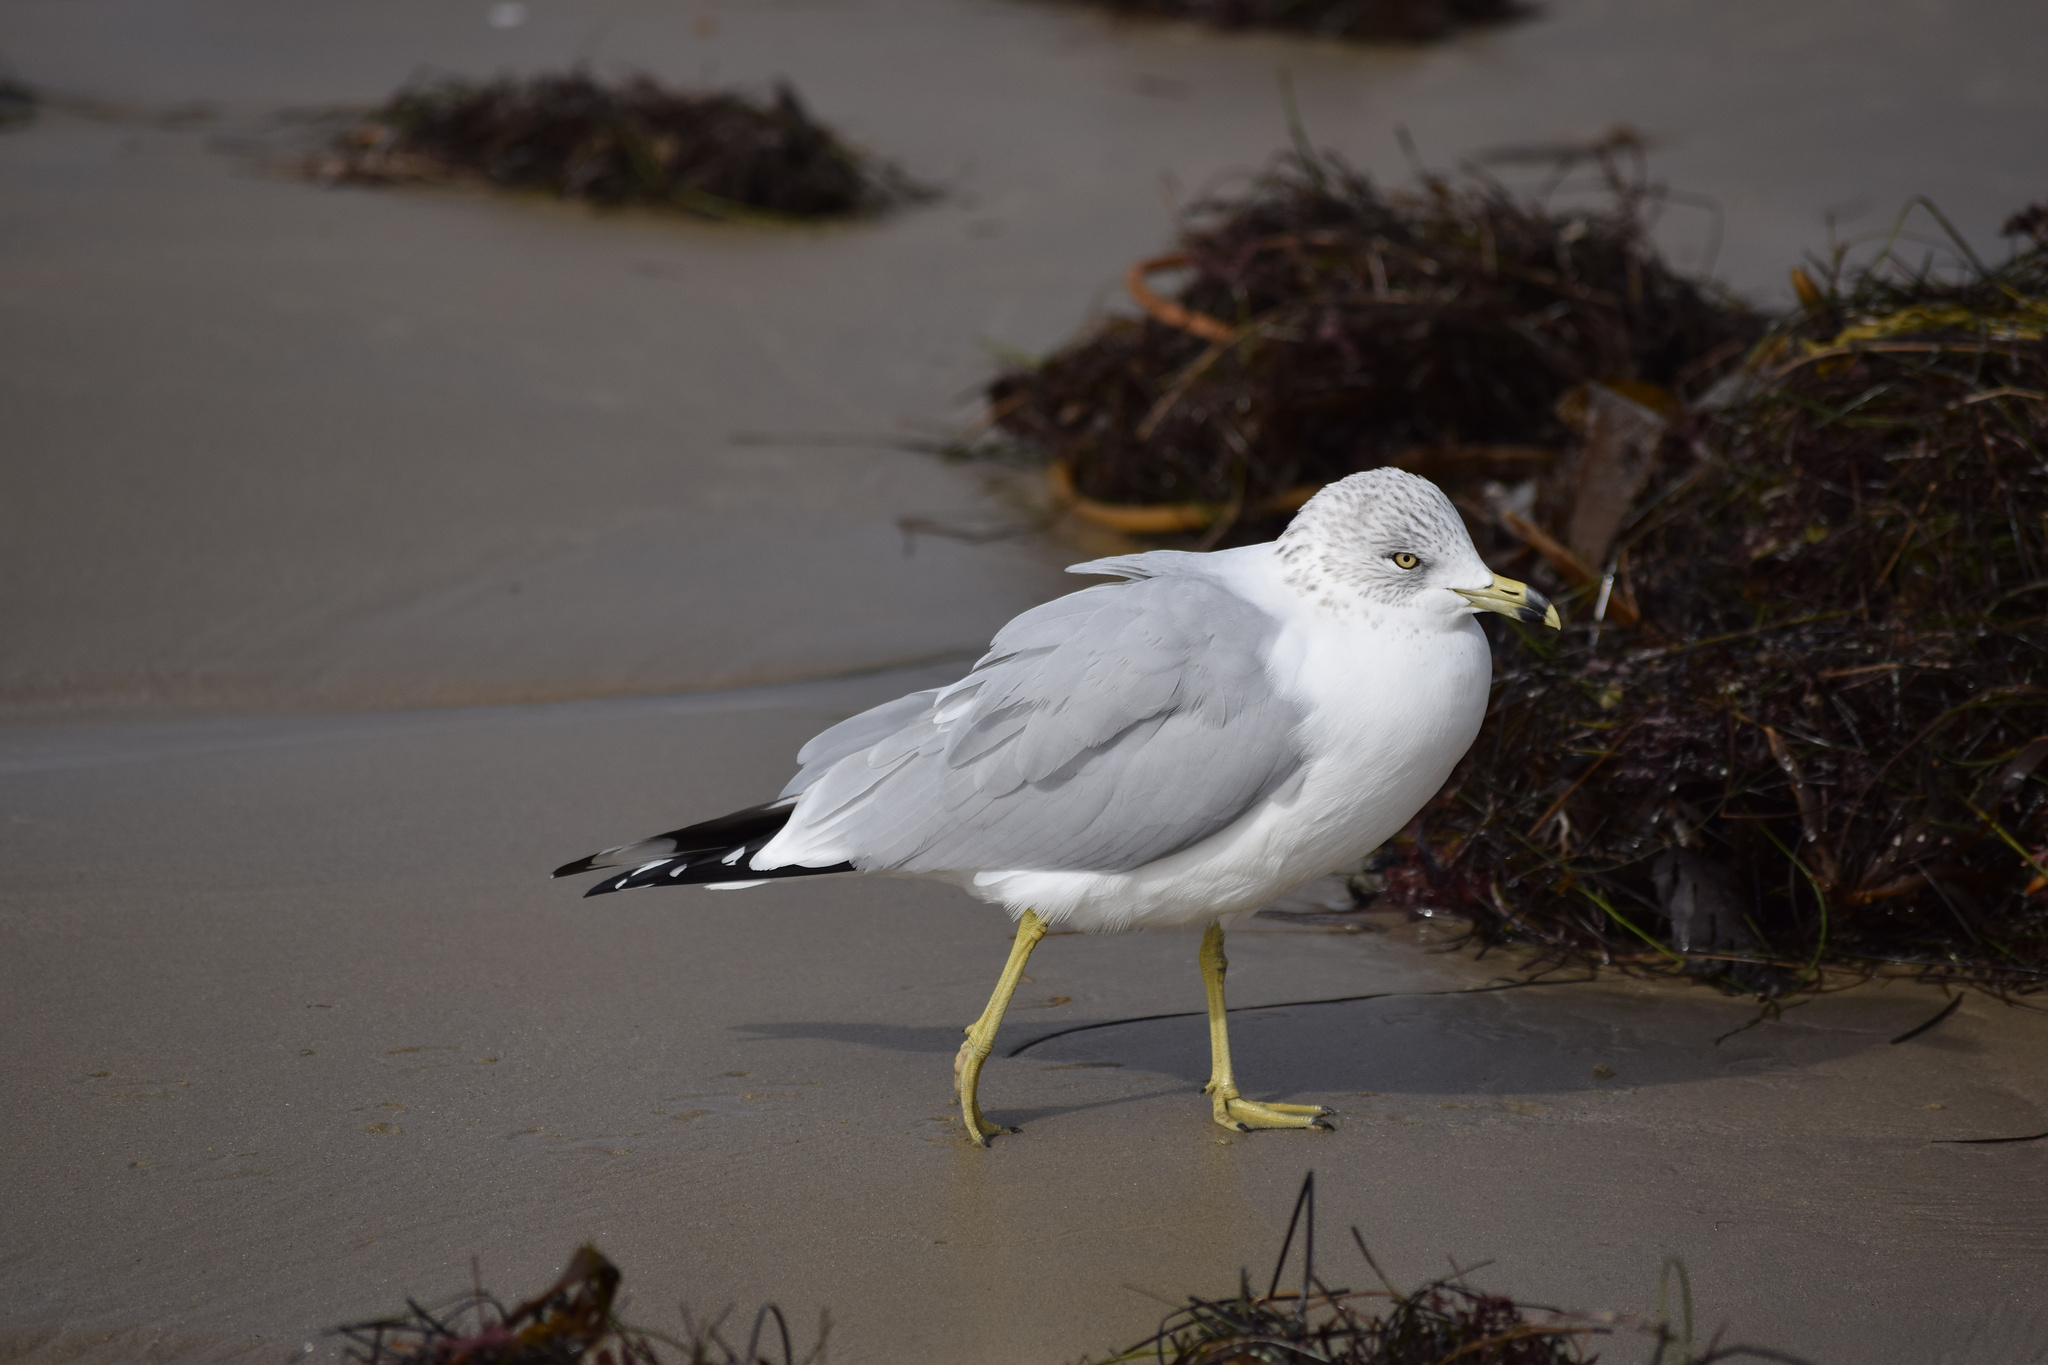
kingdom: Animalia
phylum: Chordata
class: Aves
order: Charadriiformes
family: Laridae
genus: Larus
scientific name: Larus delawarensis
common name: Ring-billed gull
